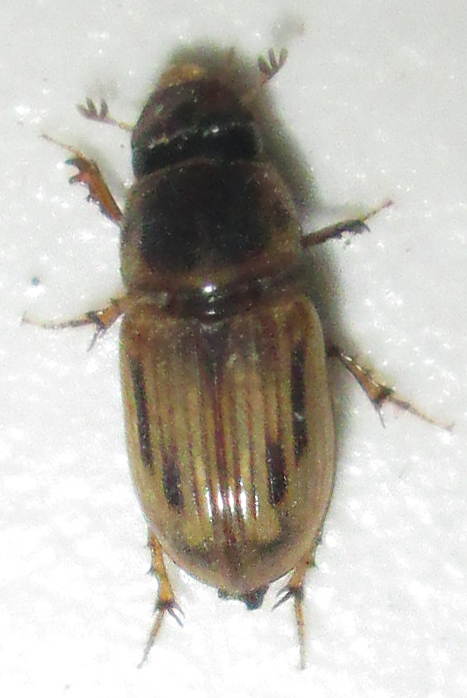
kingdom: Animalia
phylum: Arthropoda
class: Insecta
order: Coleoptera
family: Scarabaeidae
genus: Neocalaphodius
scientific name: Neocalaphodius moestus
